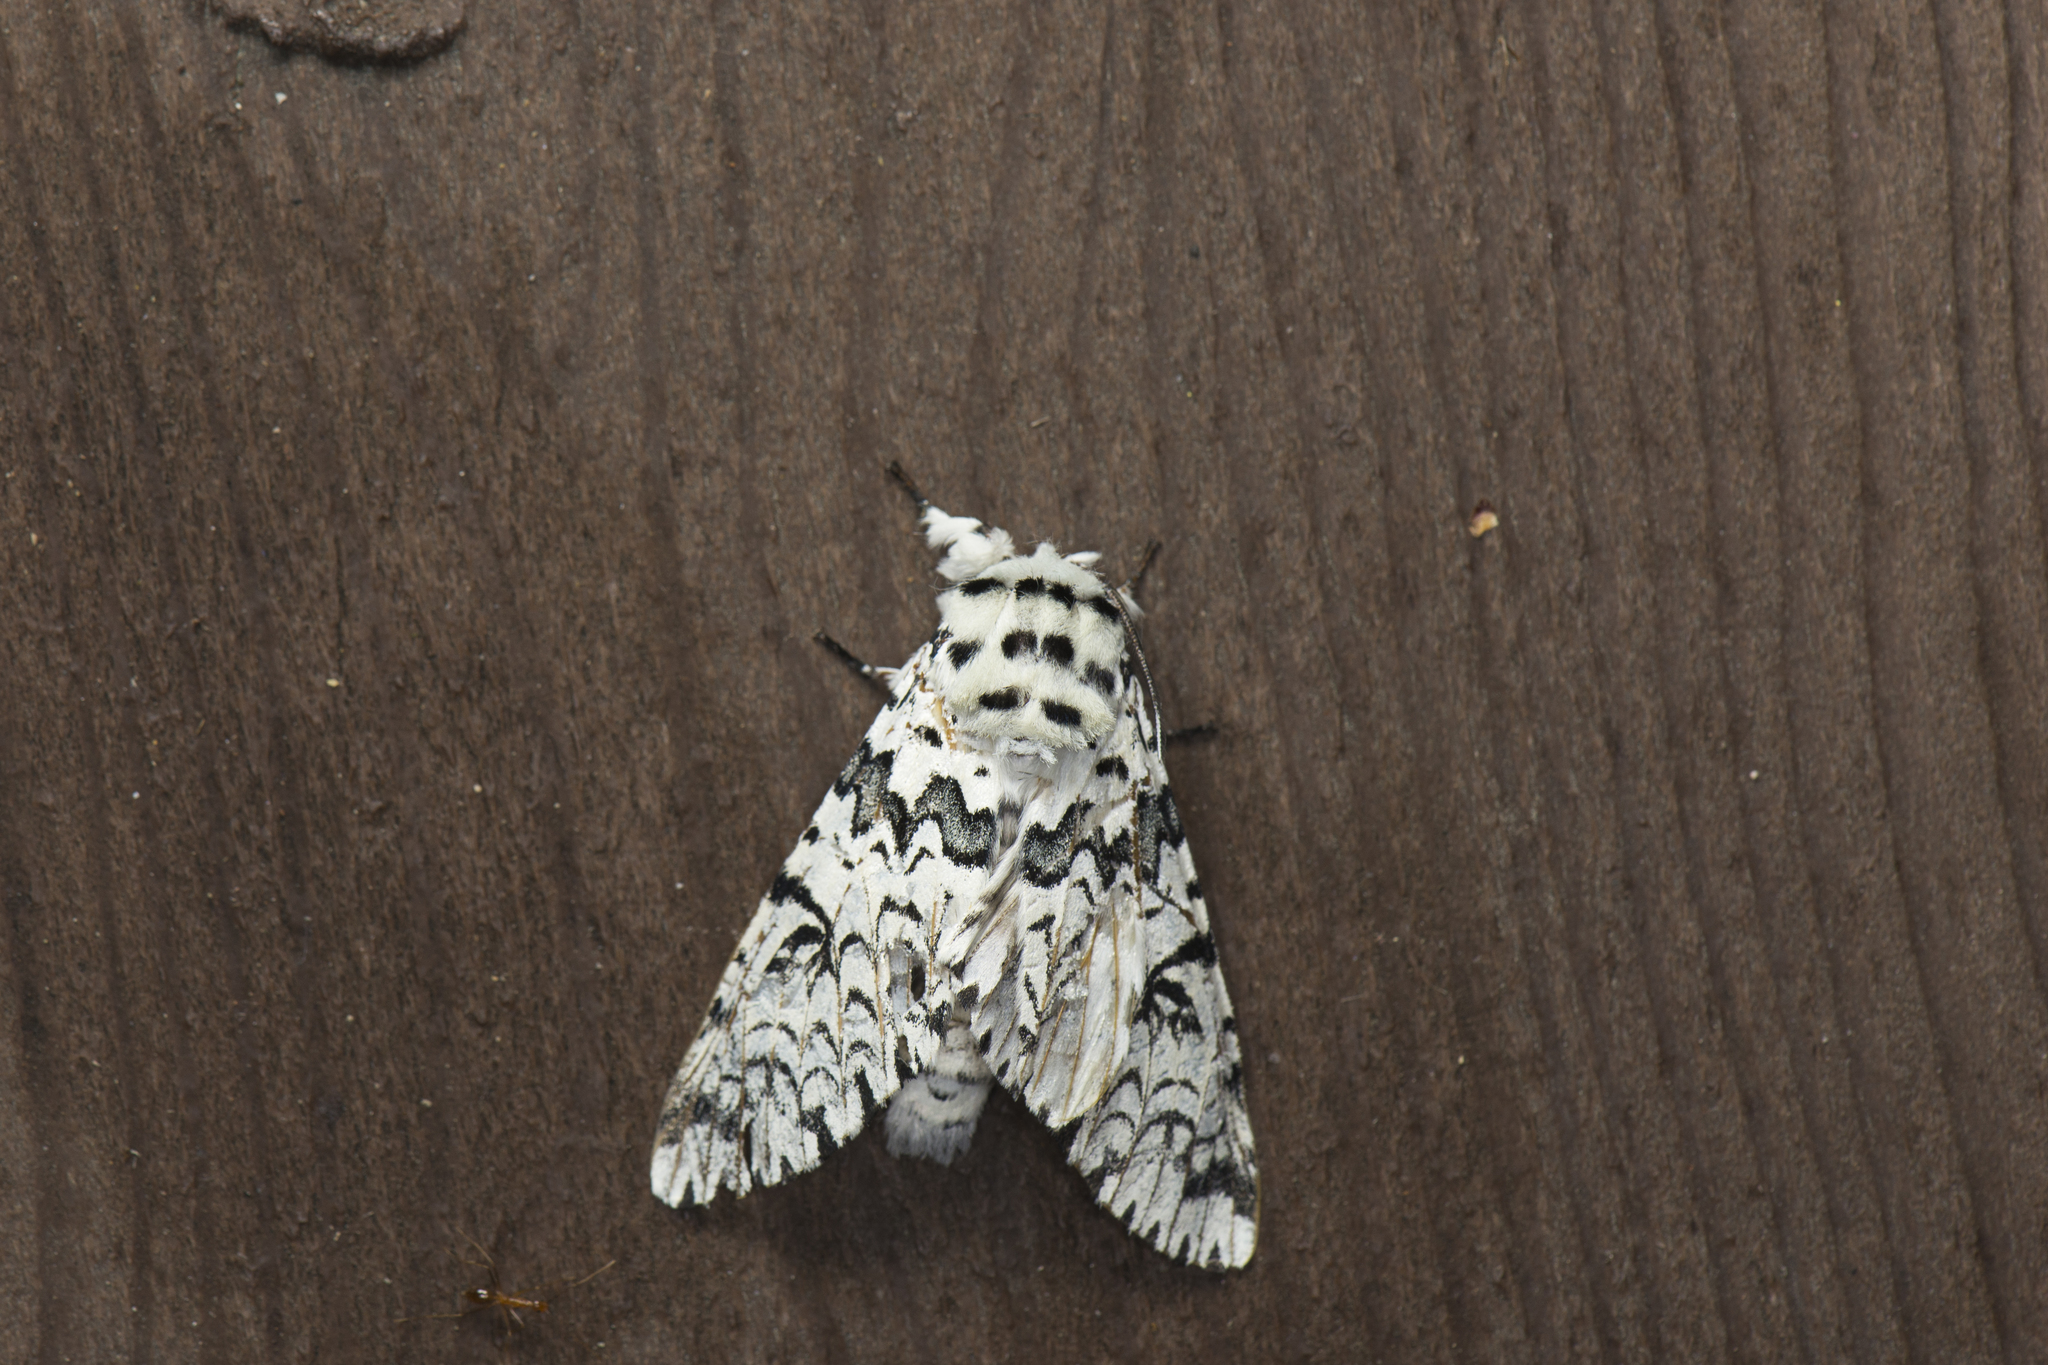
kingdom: Animalia
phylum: Arthropoda
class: Insecta
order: Lepidoptera
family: Notodontidae
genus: Kamalia
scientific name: Kamalia tattakana
